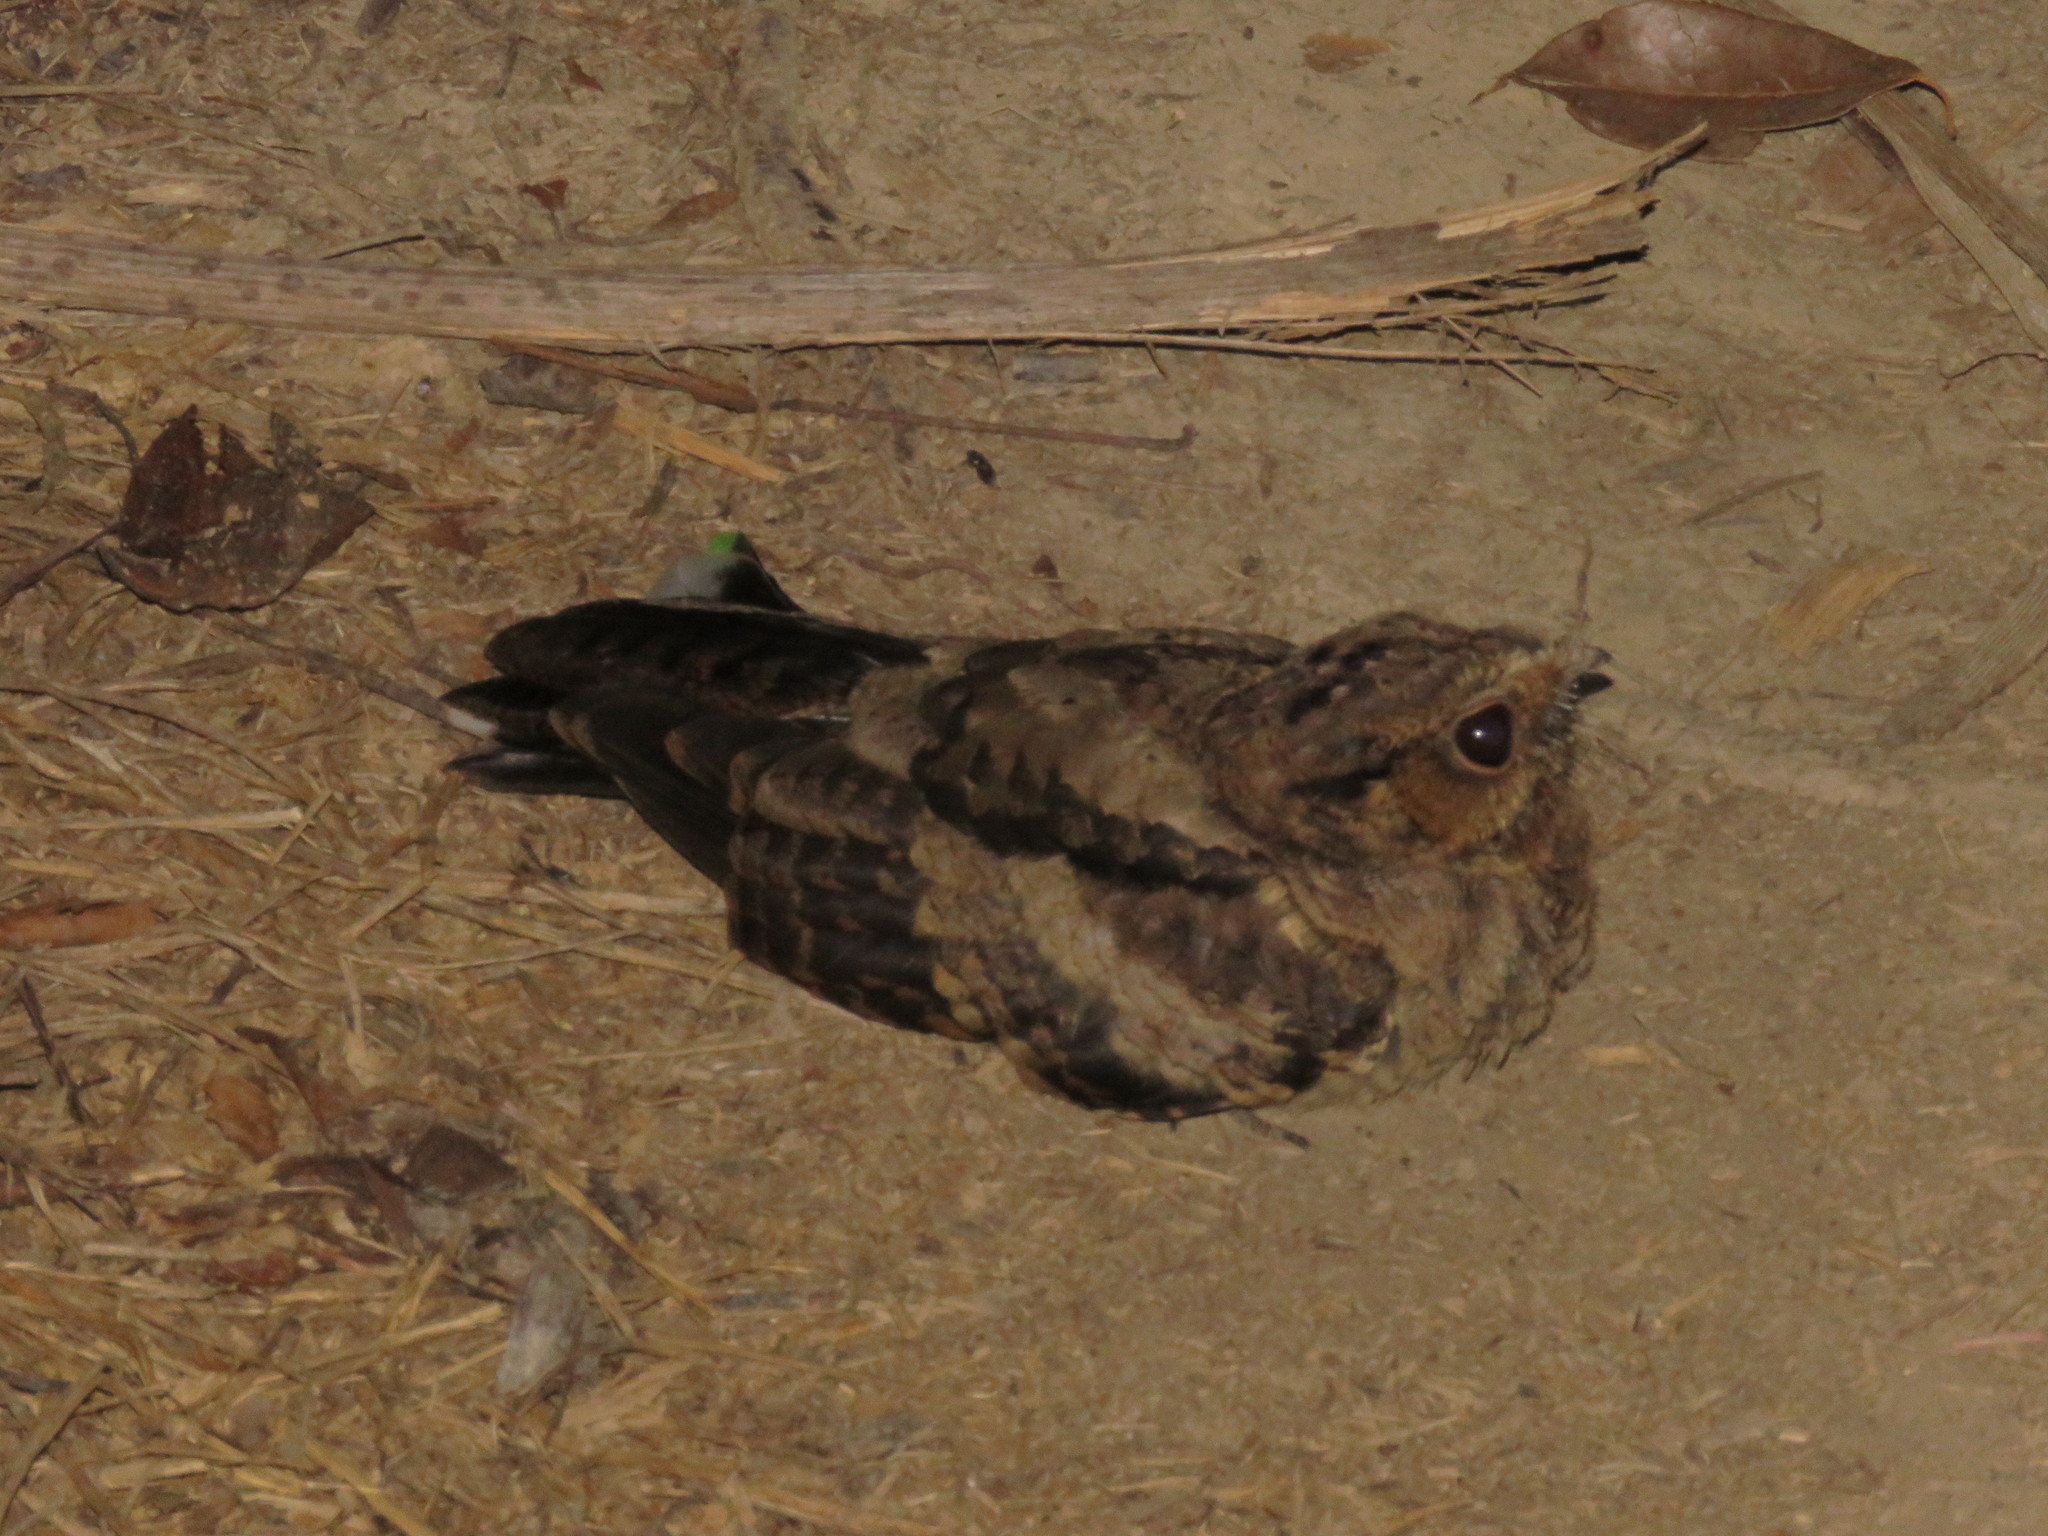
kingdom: Animalia
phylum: Chordata
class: Aves
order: Caprimulgiformes
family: Caprimulgidae
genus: Nyctidromus
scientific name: Nyctidromus albicollis
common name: Pauraque
